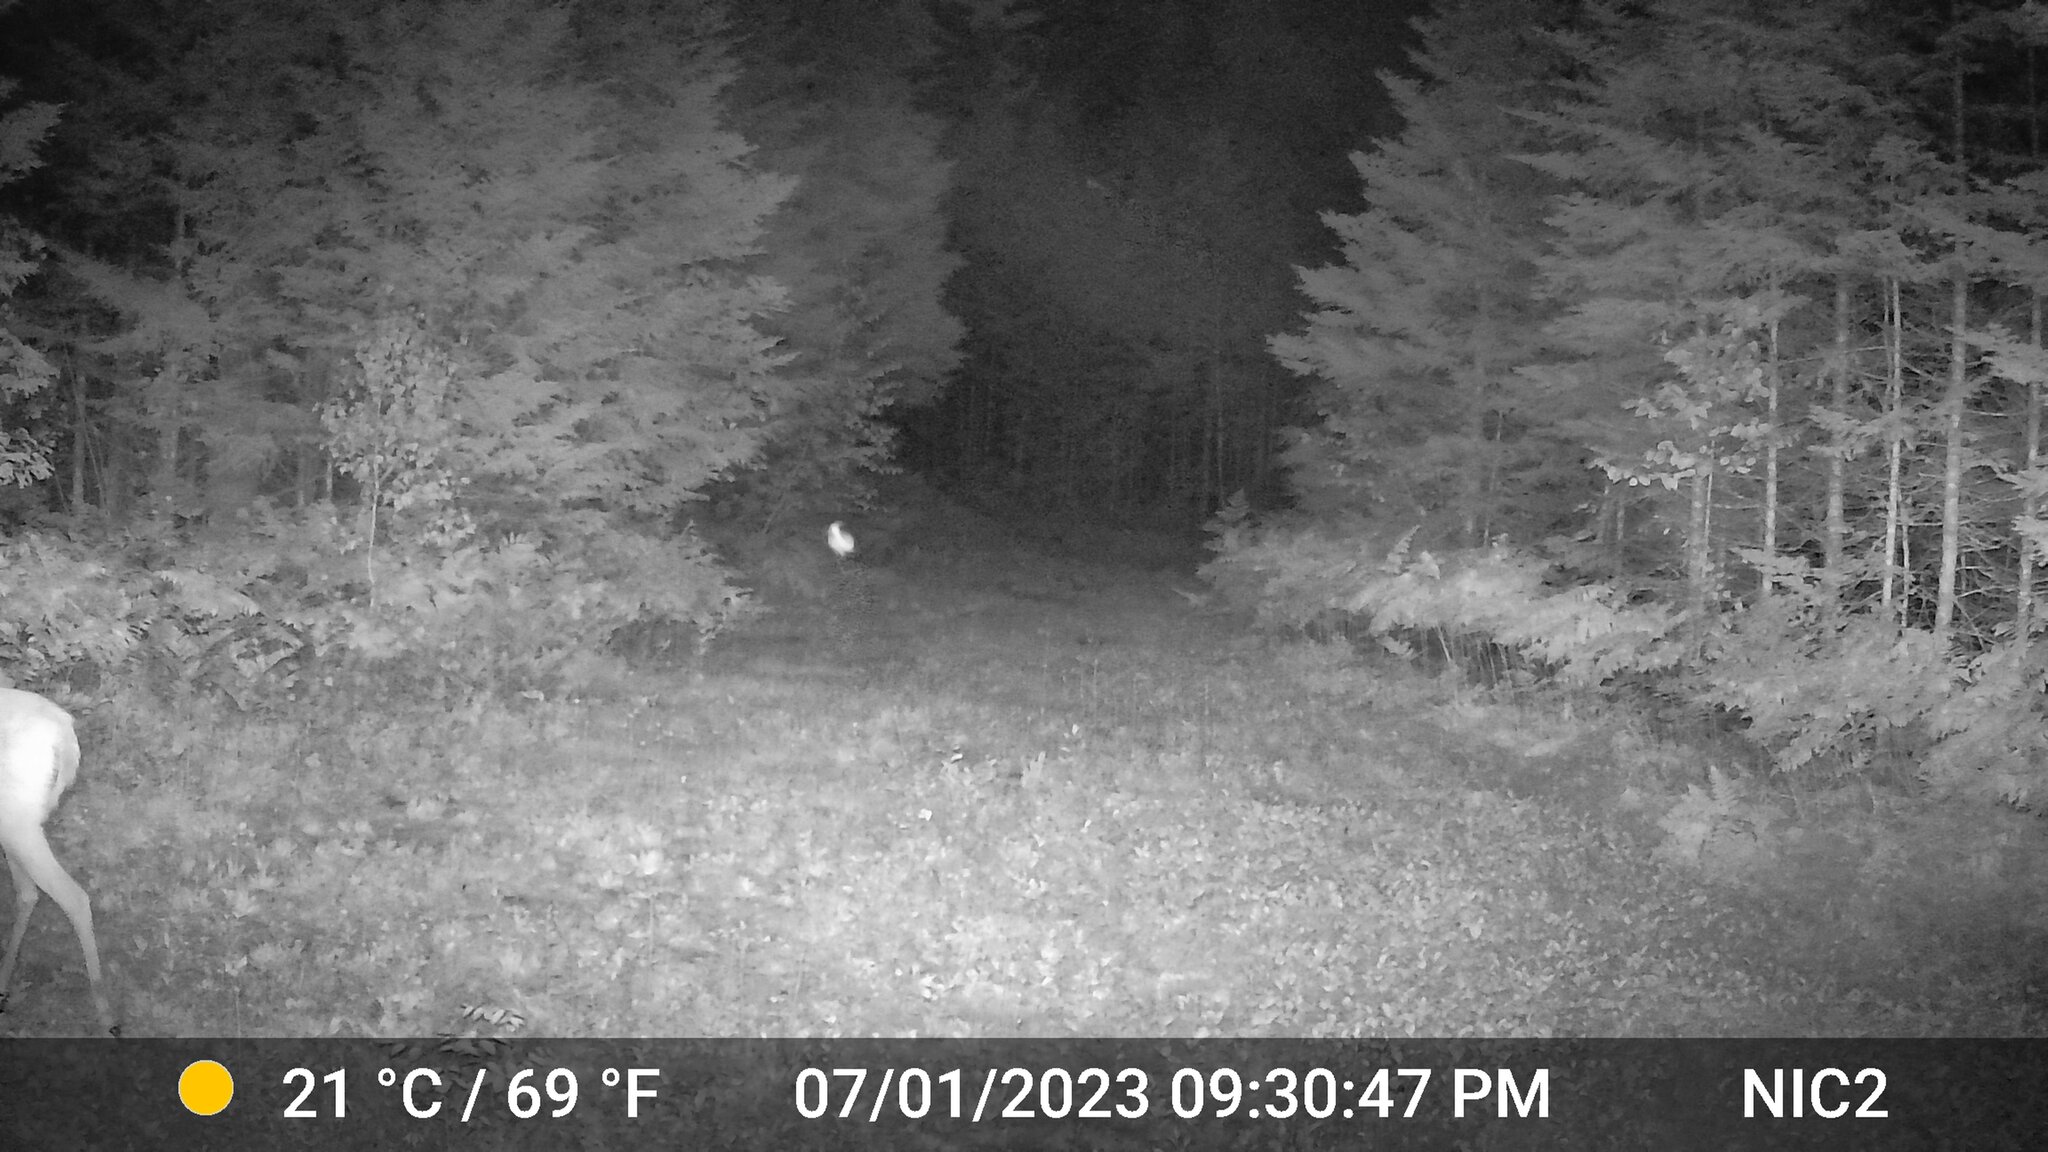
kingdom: Animalia
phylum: Chordata
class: Mammalia
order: Artiodactyla
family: Cervidae
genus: Odocoileus
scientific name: Odocoileus virginianus
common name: White-tailed deer
